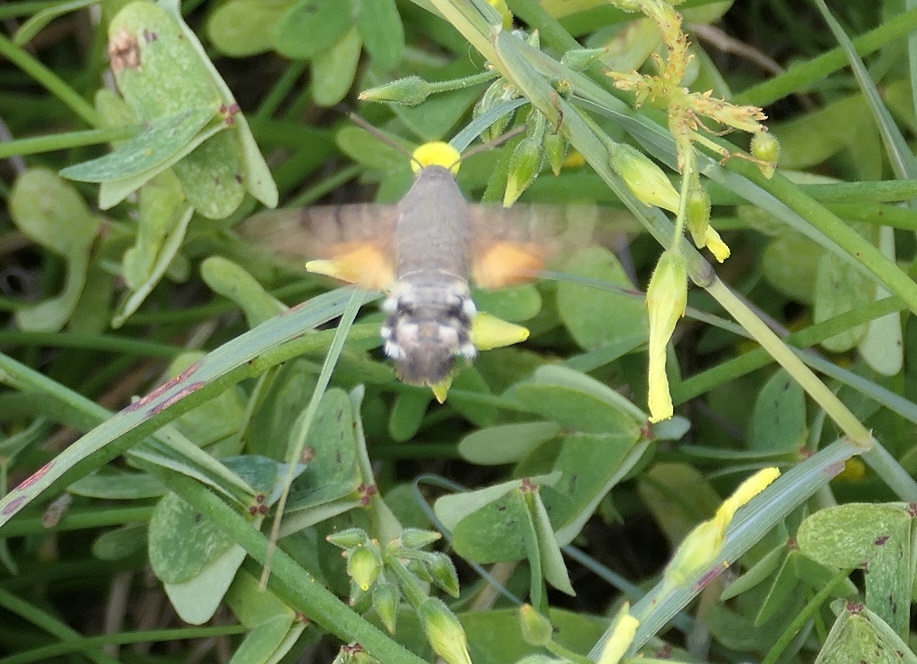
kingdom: Animalia
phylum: Arthropoda
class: Insecta
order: Lepidoptera
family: Sphingidae
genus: Macroglossum
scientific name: Macroglossum stellatarum
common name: Humming-bird hawk-moth
